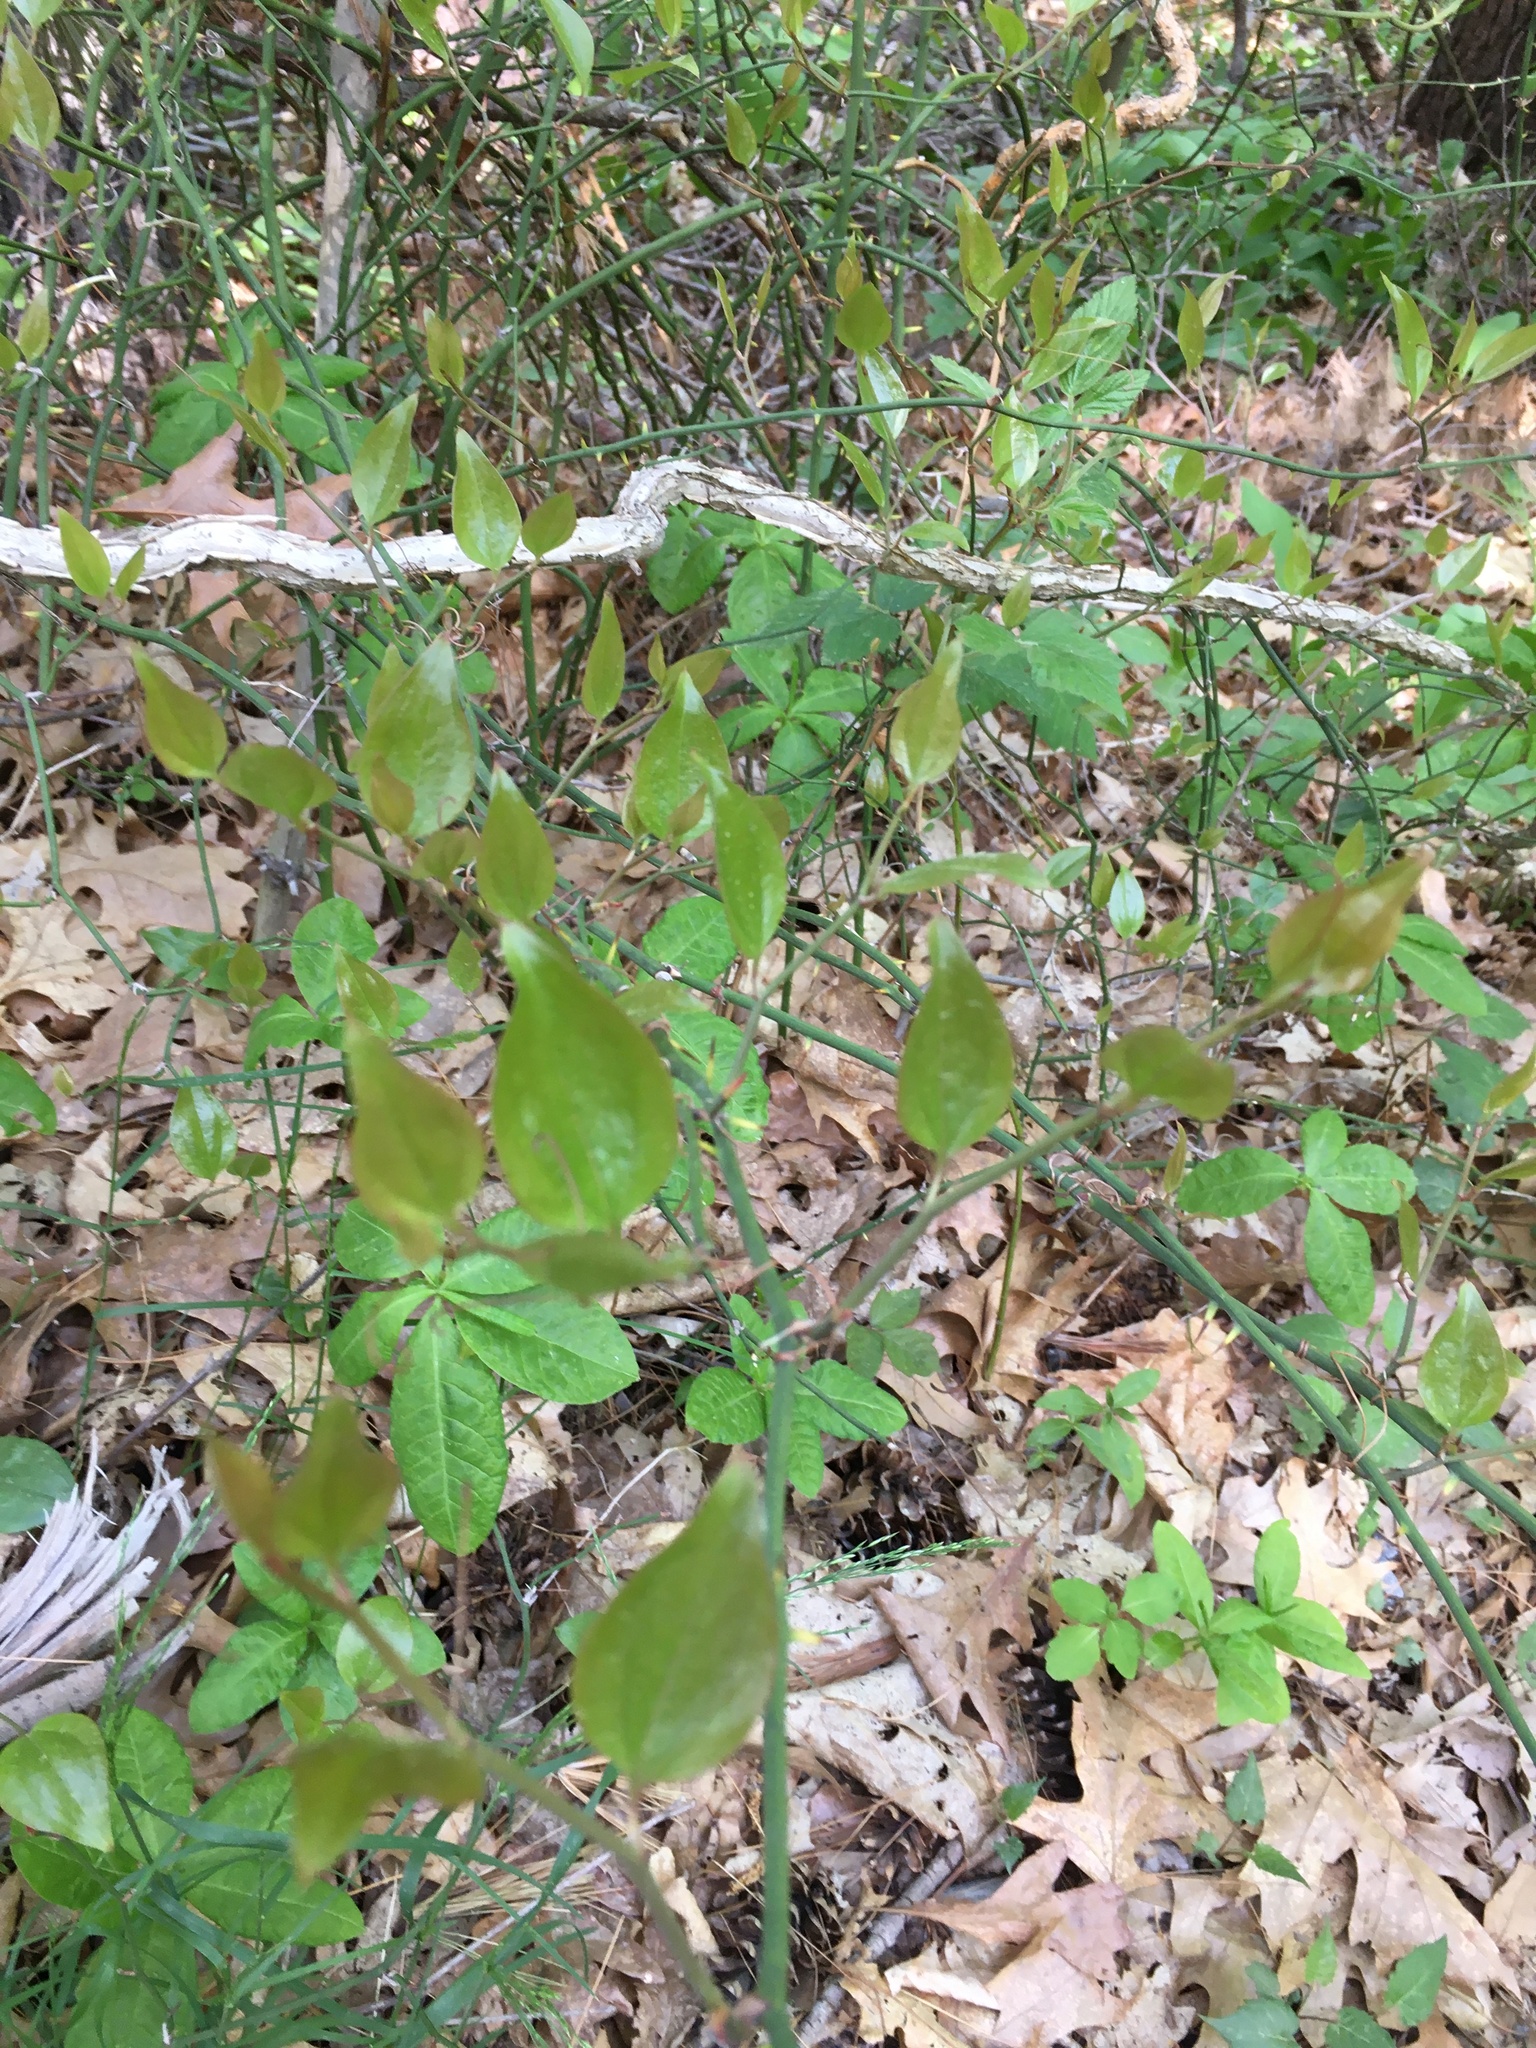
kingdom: Plantae
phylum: Tracheophyta
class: Liliopsida
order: Liliales
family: Smilacaceae
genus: Smilax
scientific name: Smilax rotundifolia
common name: Bullbriar
